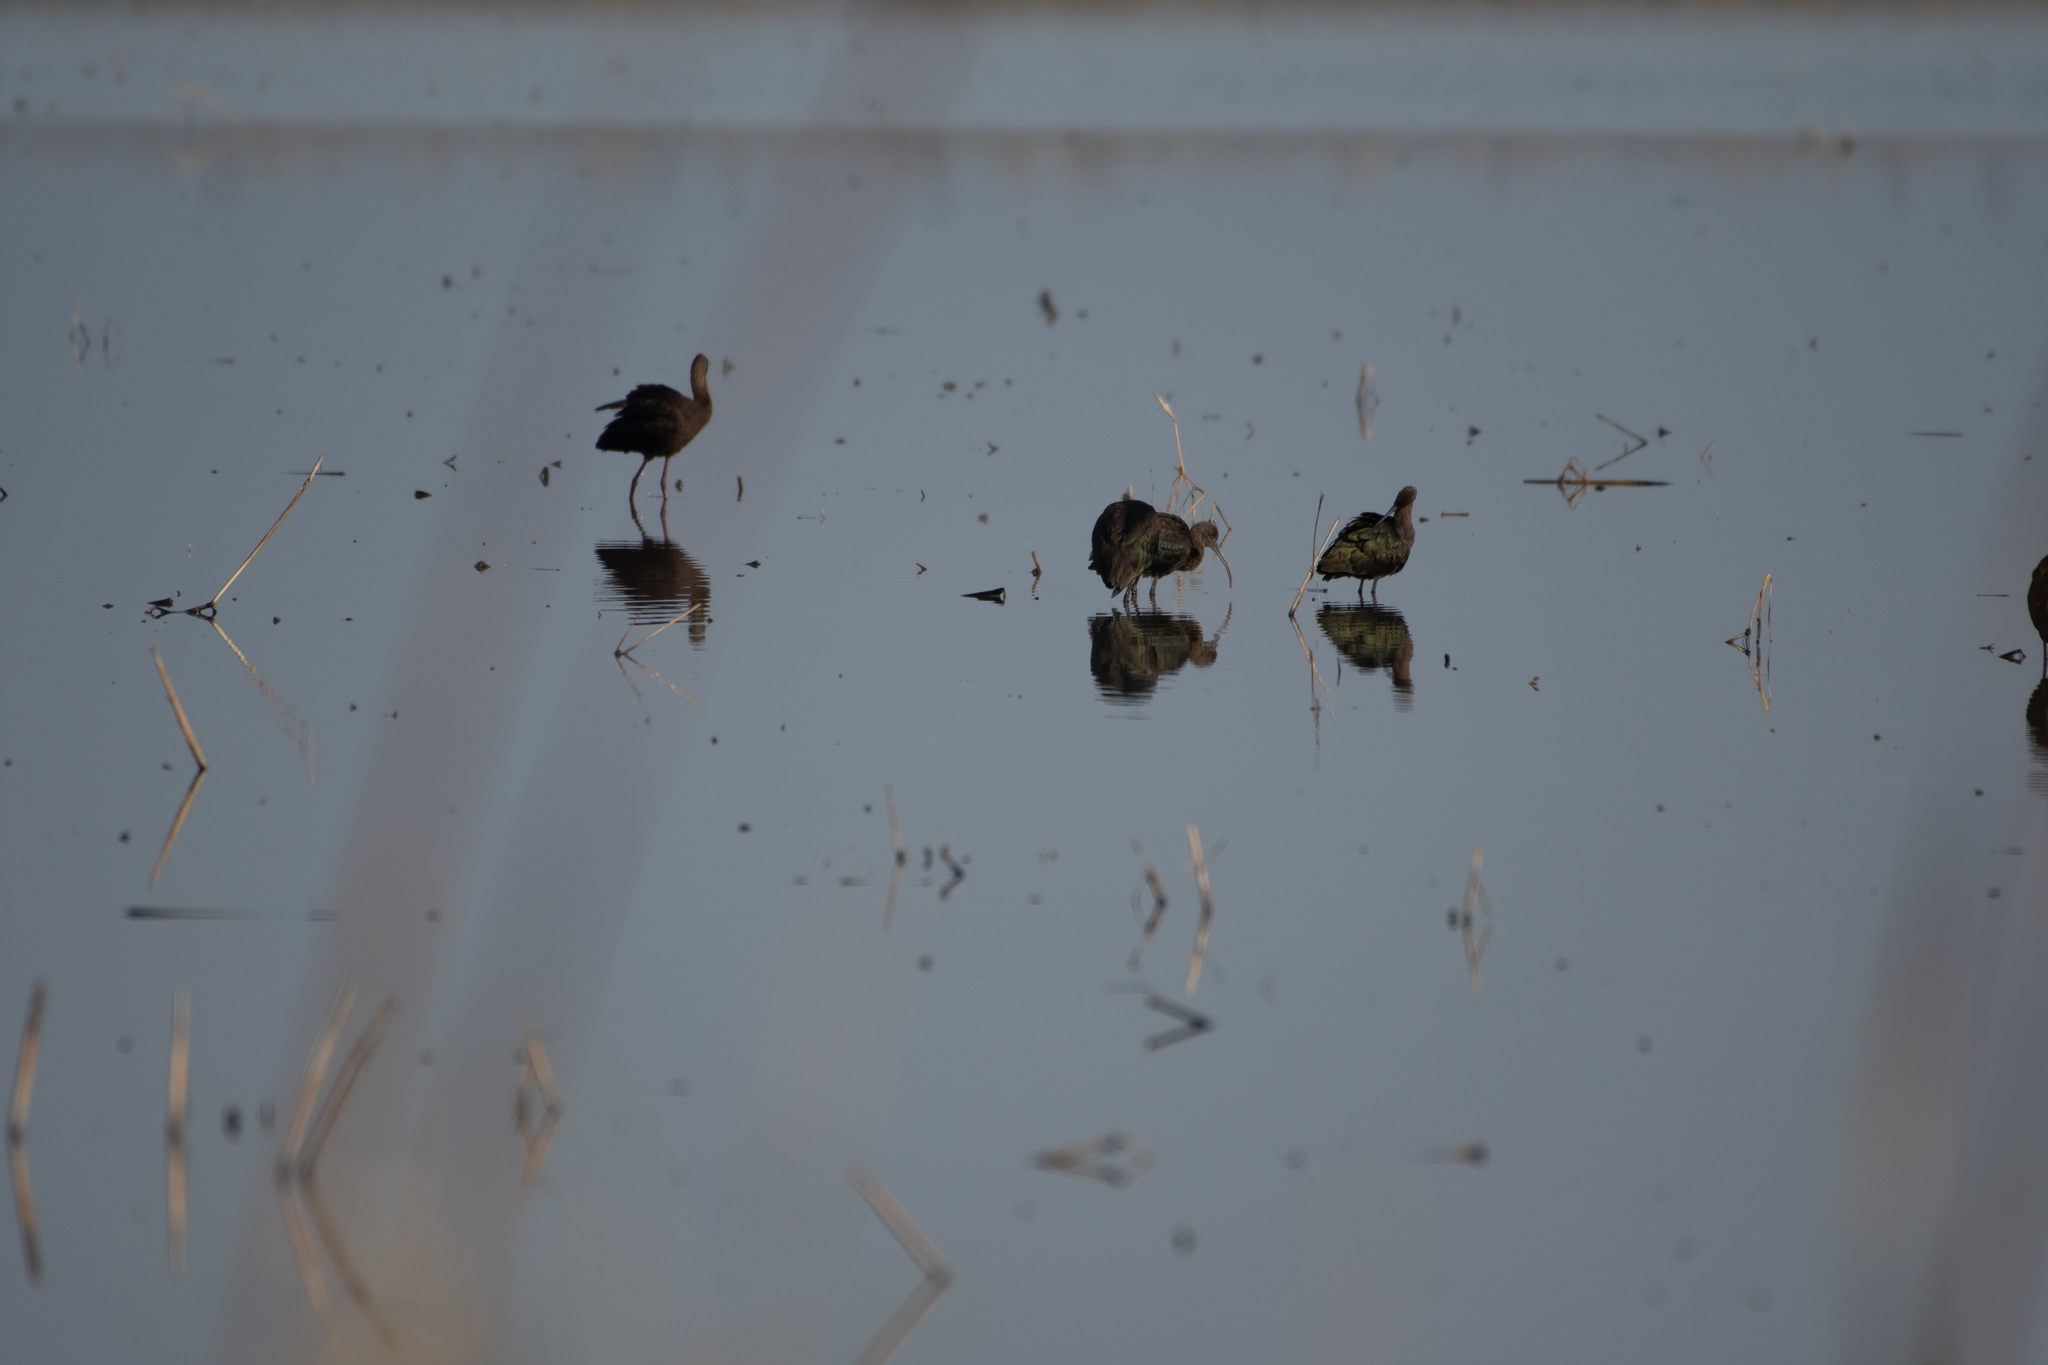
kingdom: Animalia
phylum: Chordata
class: Aves
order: Pelecaniformes
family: Threskiornithidae
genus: Plegadis
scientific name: Plegadis chihi
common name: White-faced ibis
